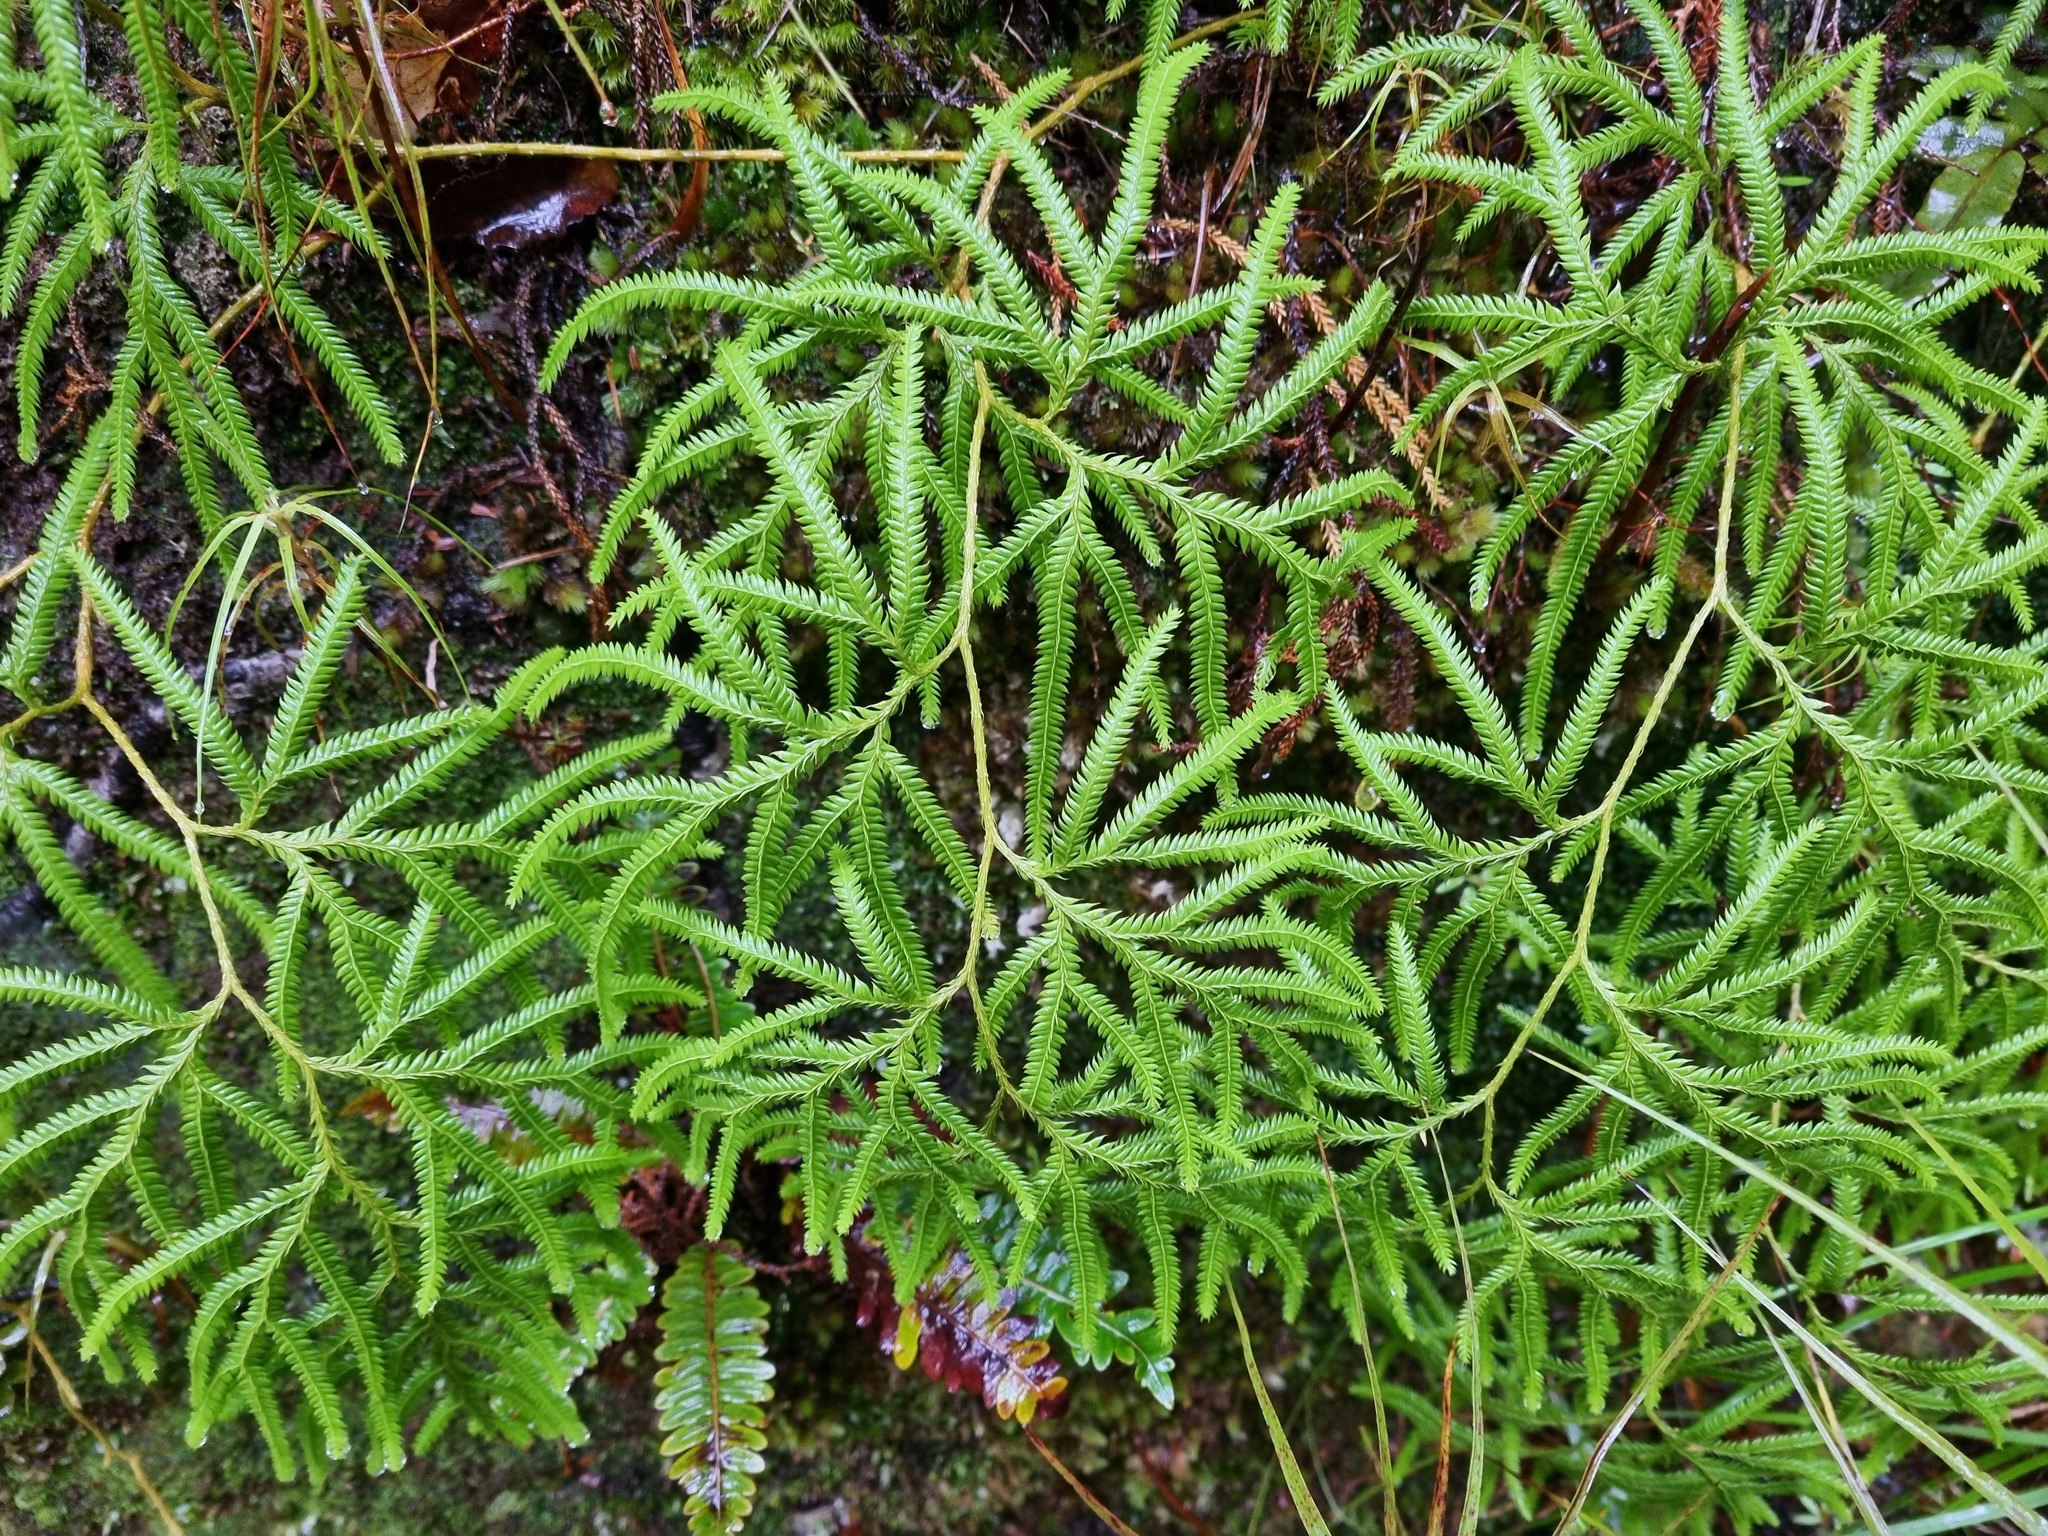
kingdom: Plantae
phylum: Tracheophyta
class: Lycopodiopsida
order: Lycopodiales
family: Lycopodiaceae
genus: Lycopodium
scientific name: Lycopodium volubile
